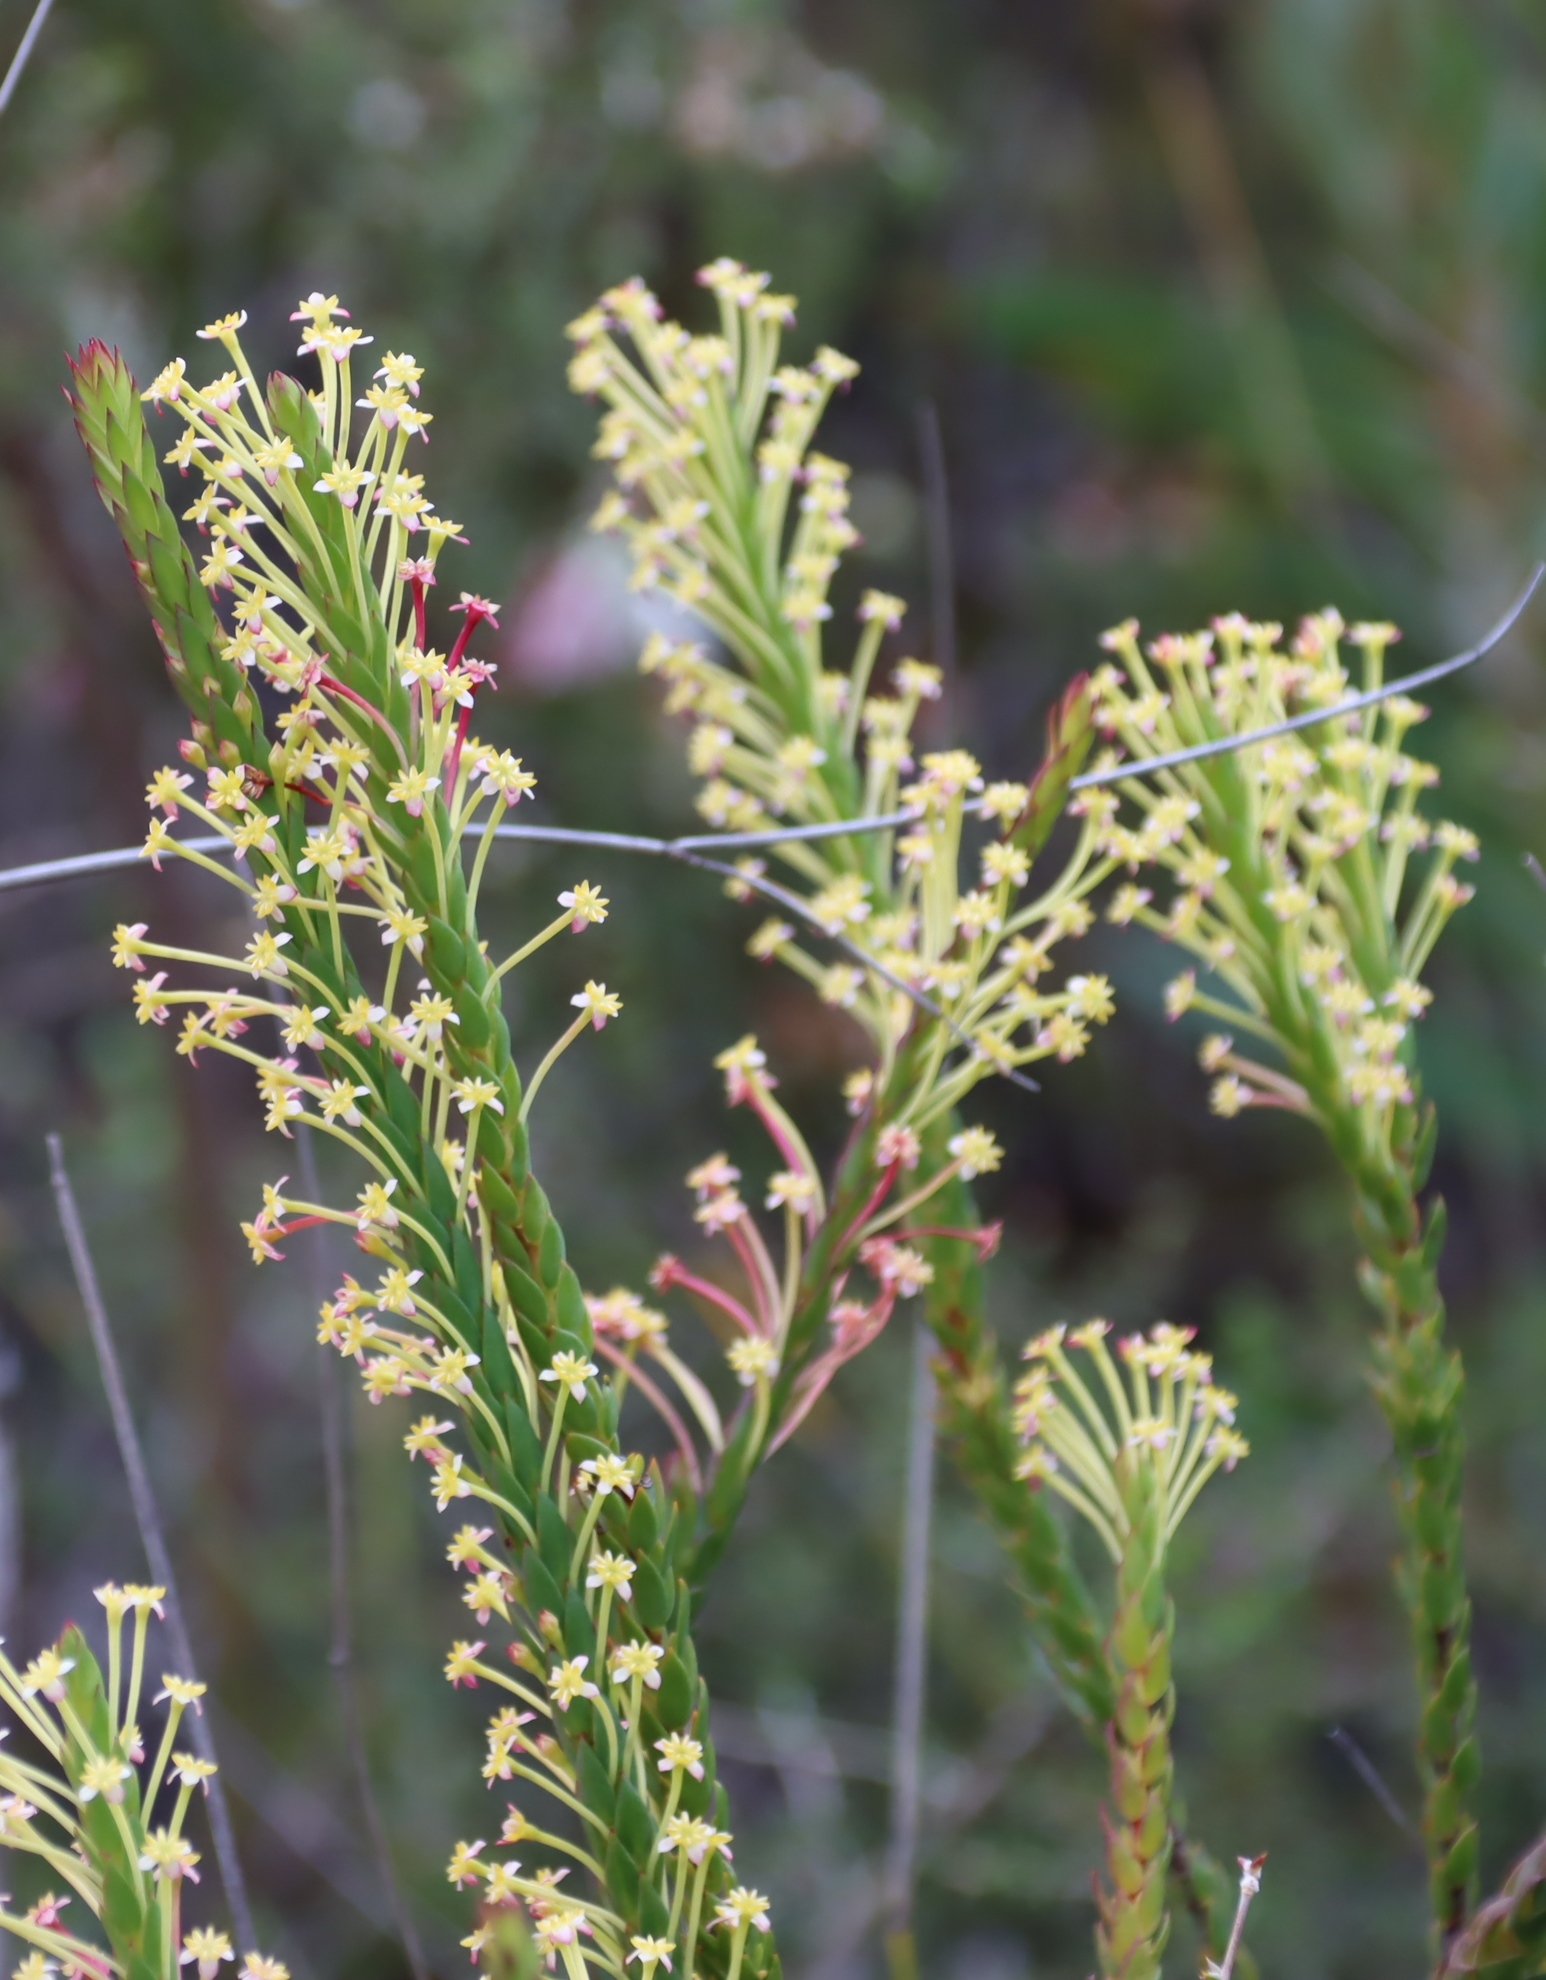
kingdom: Plantae
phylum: Tracheophyta
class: Magnoliopsida
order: Malvales
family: Thymelaeaceae
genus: Struthiola
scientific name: Struthiola eckloniana
